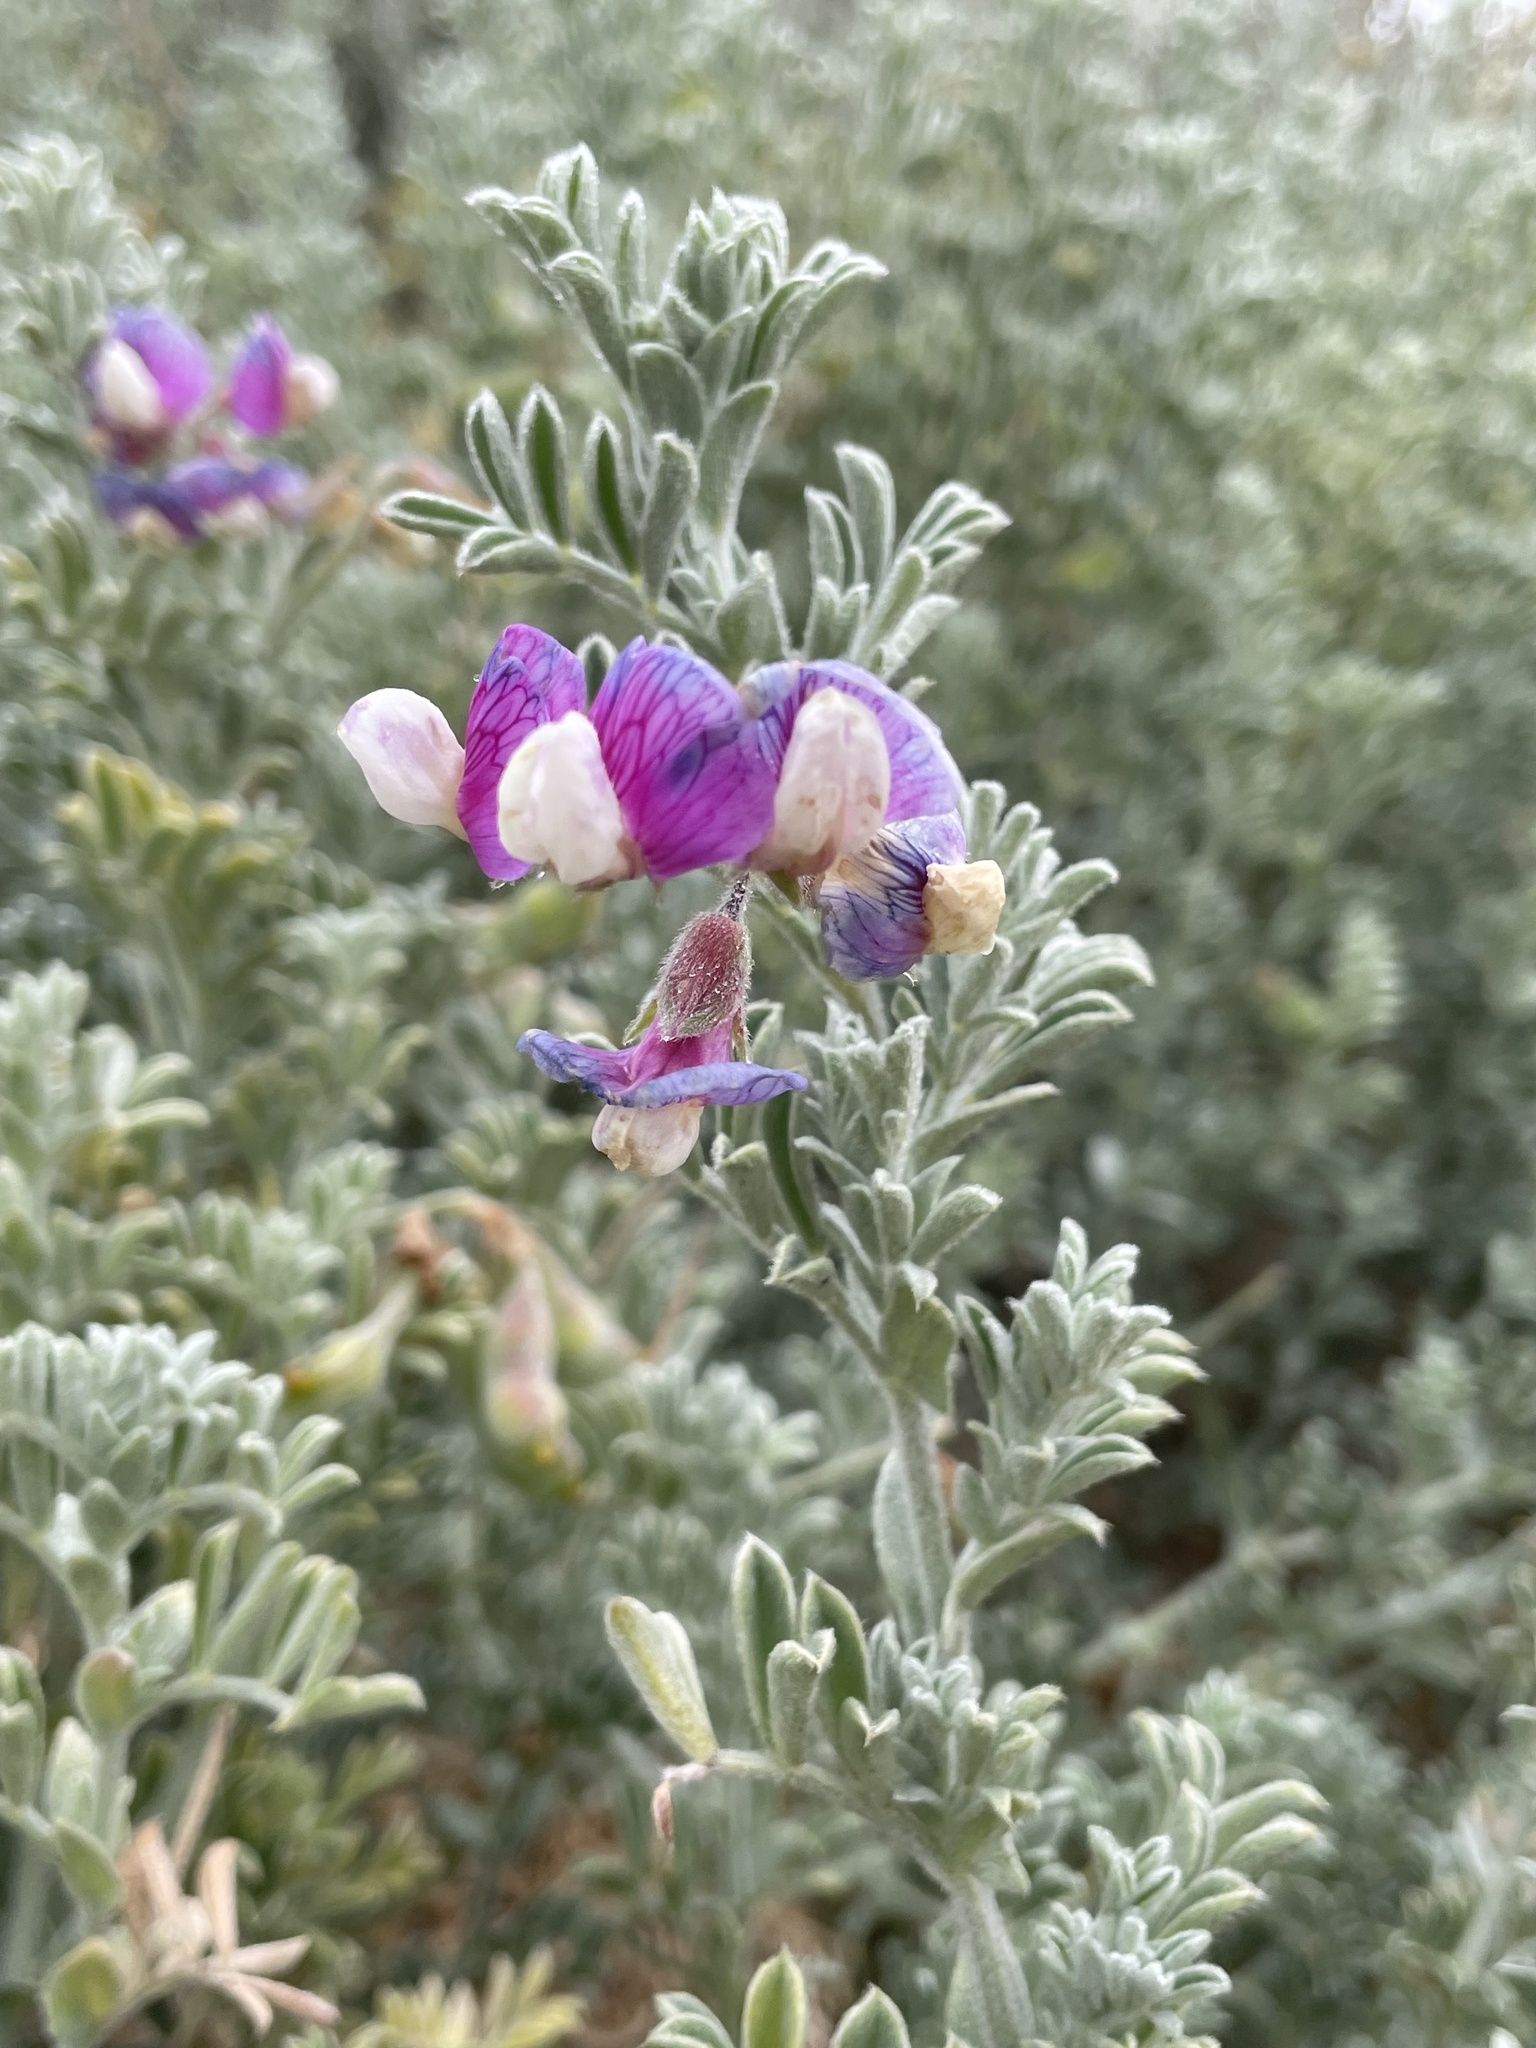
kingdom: Plantae
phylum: Tracheophyta
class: Magnoliopsida
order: Fabales
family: Fabaceae
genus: Lathyrus
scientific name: Lathyrus littoralis
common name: Dune sweet pea
